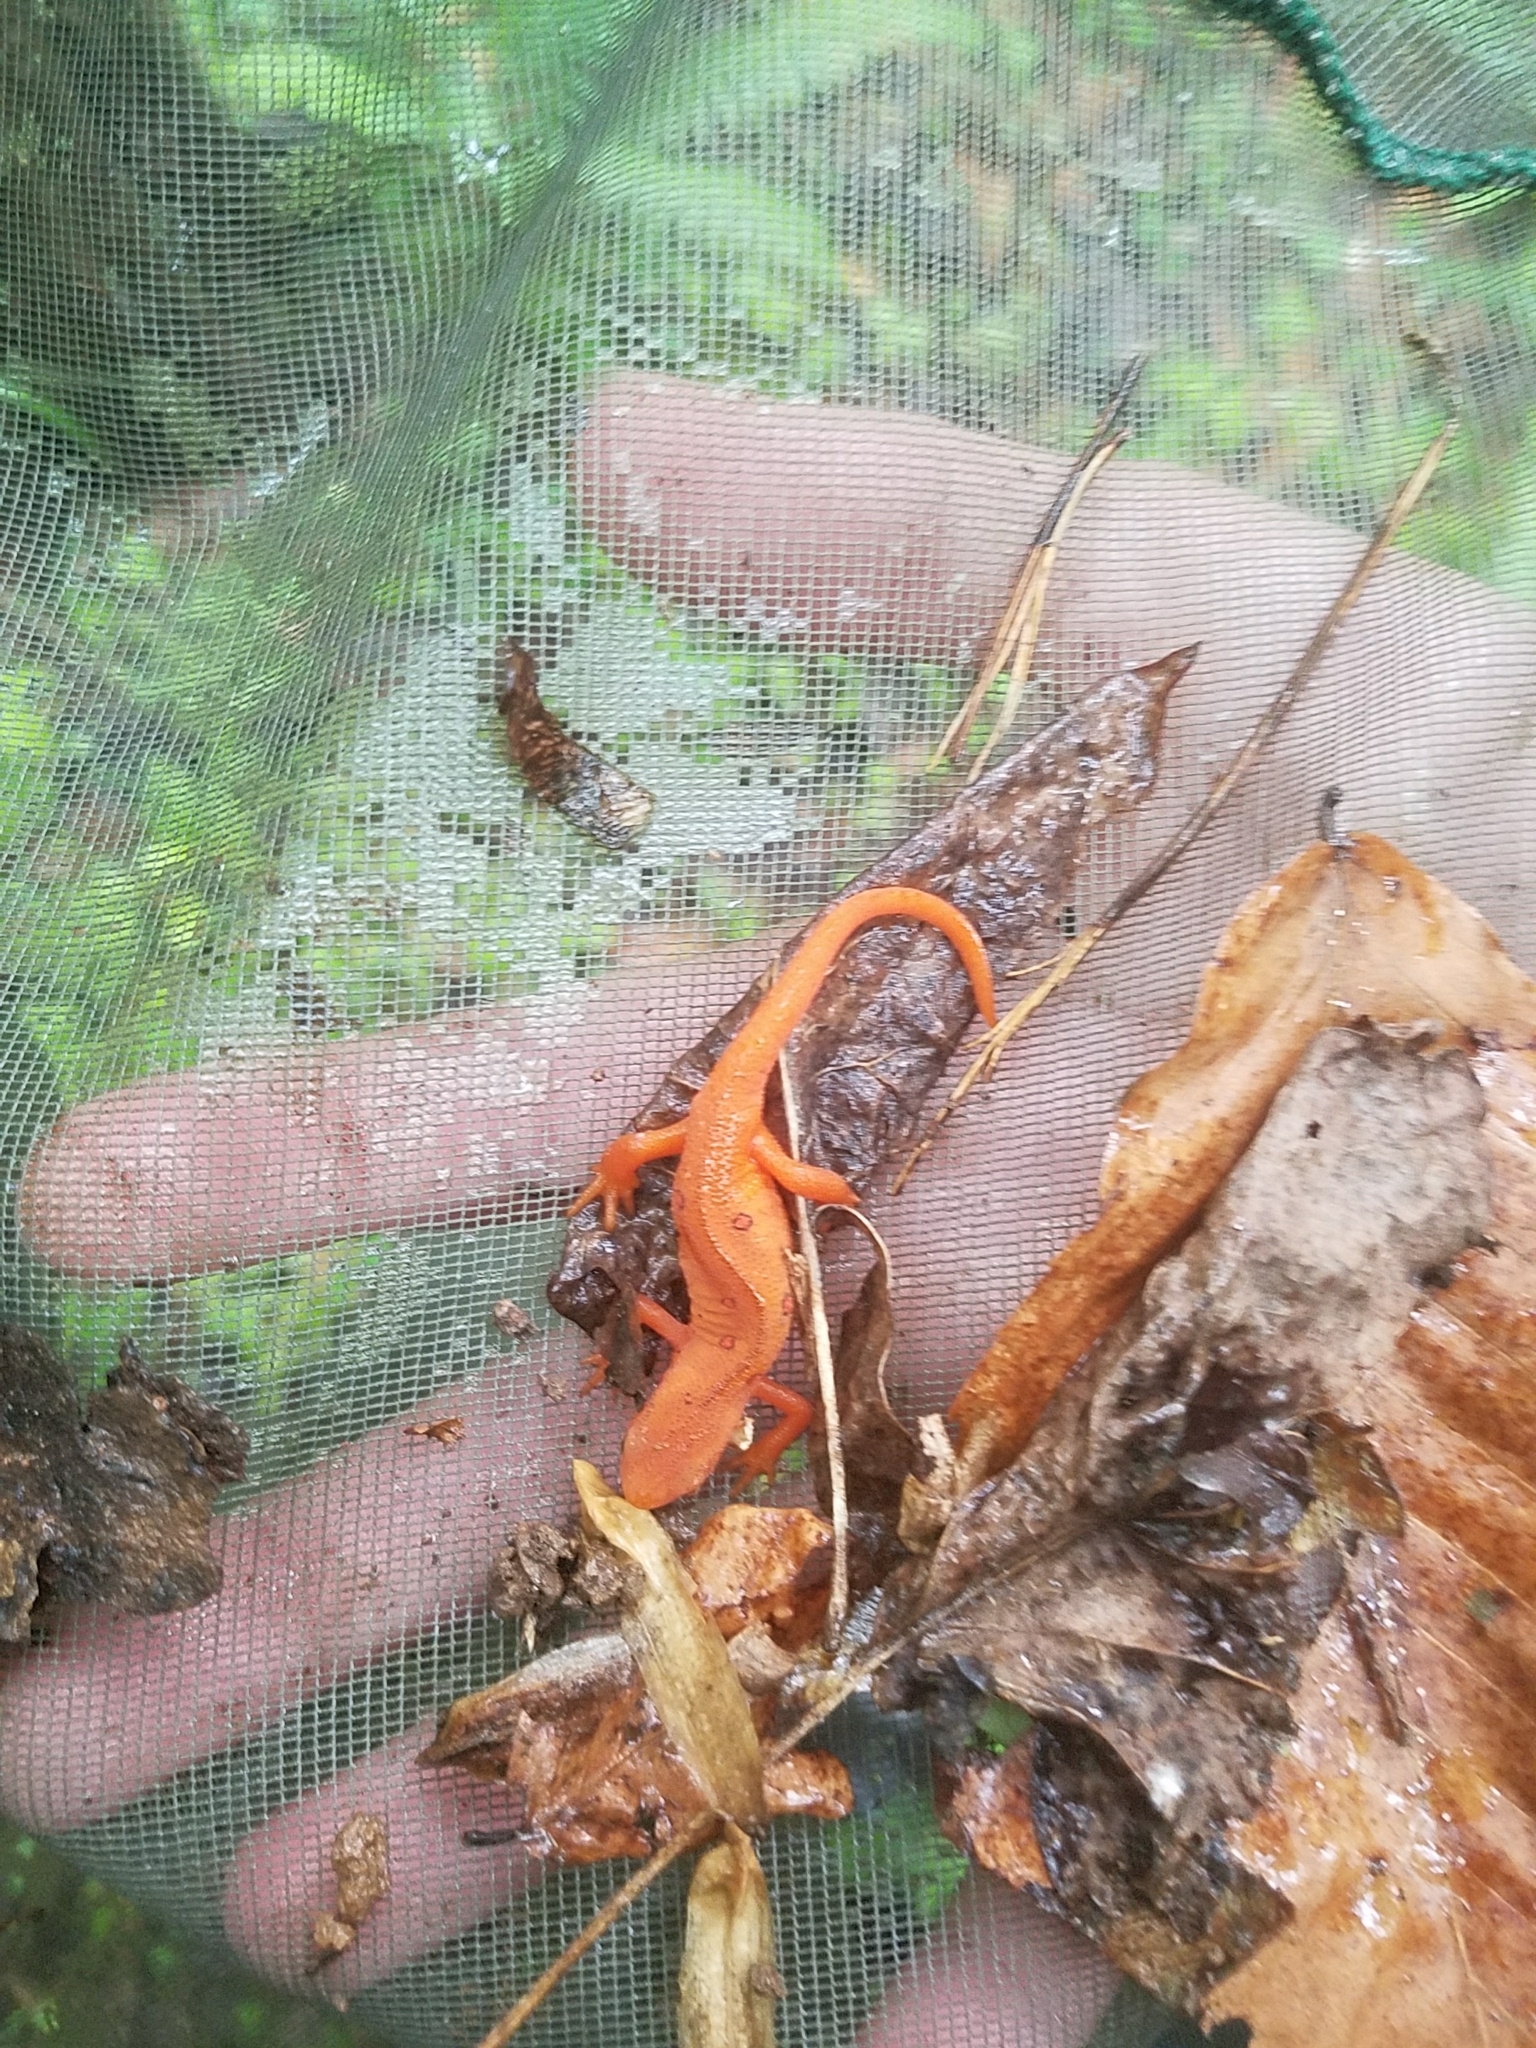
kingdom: Animalia
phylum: Chordata
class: Amphibia
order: Caudata
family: Salamandridae
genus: Notophthalmus
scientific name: Notophthalmus viridescens
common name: Eastern newt
